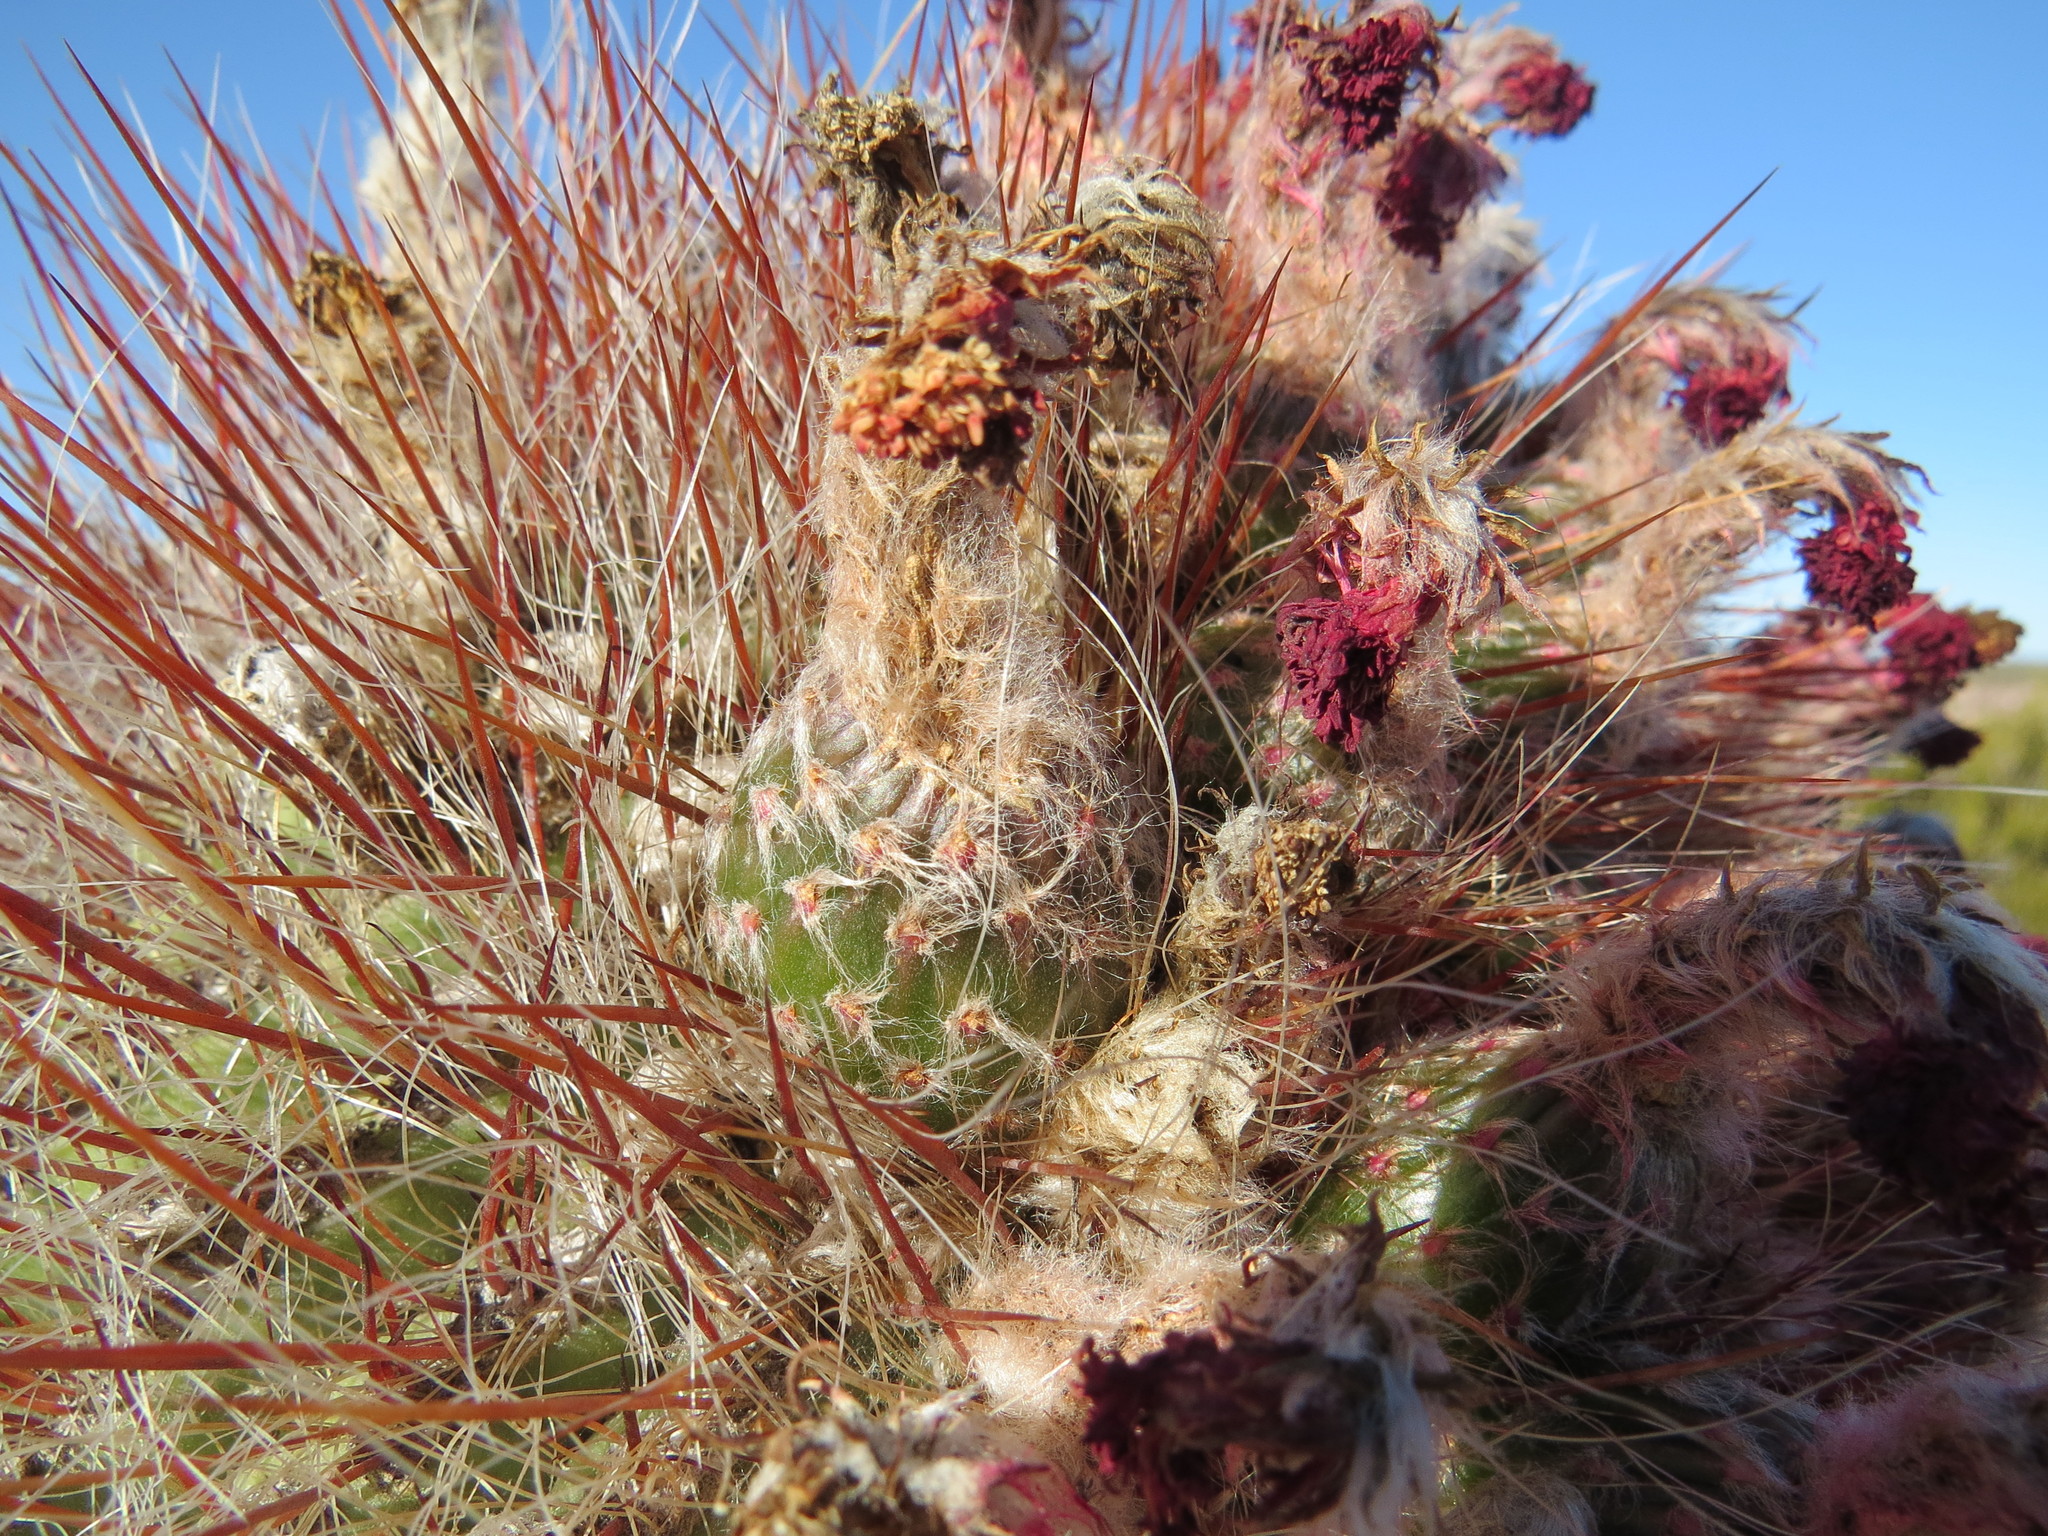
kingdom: Plantae
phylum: Tracheophyta
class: Magnoliopsida
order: Caryophyllales
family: Cactaceae
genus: Denmoza
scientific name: Denmoza rhodacantha
